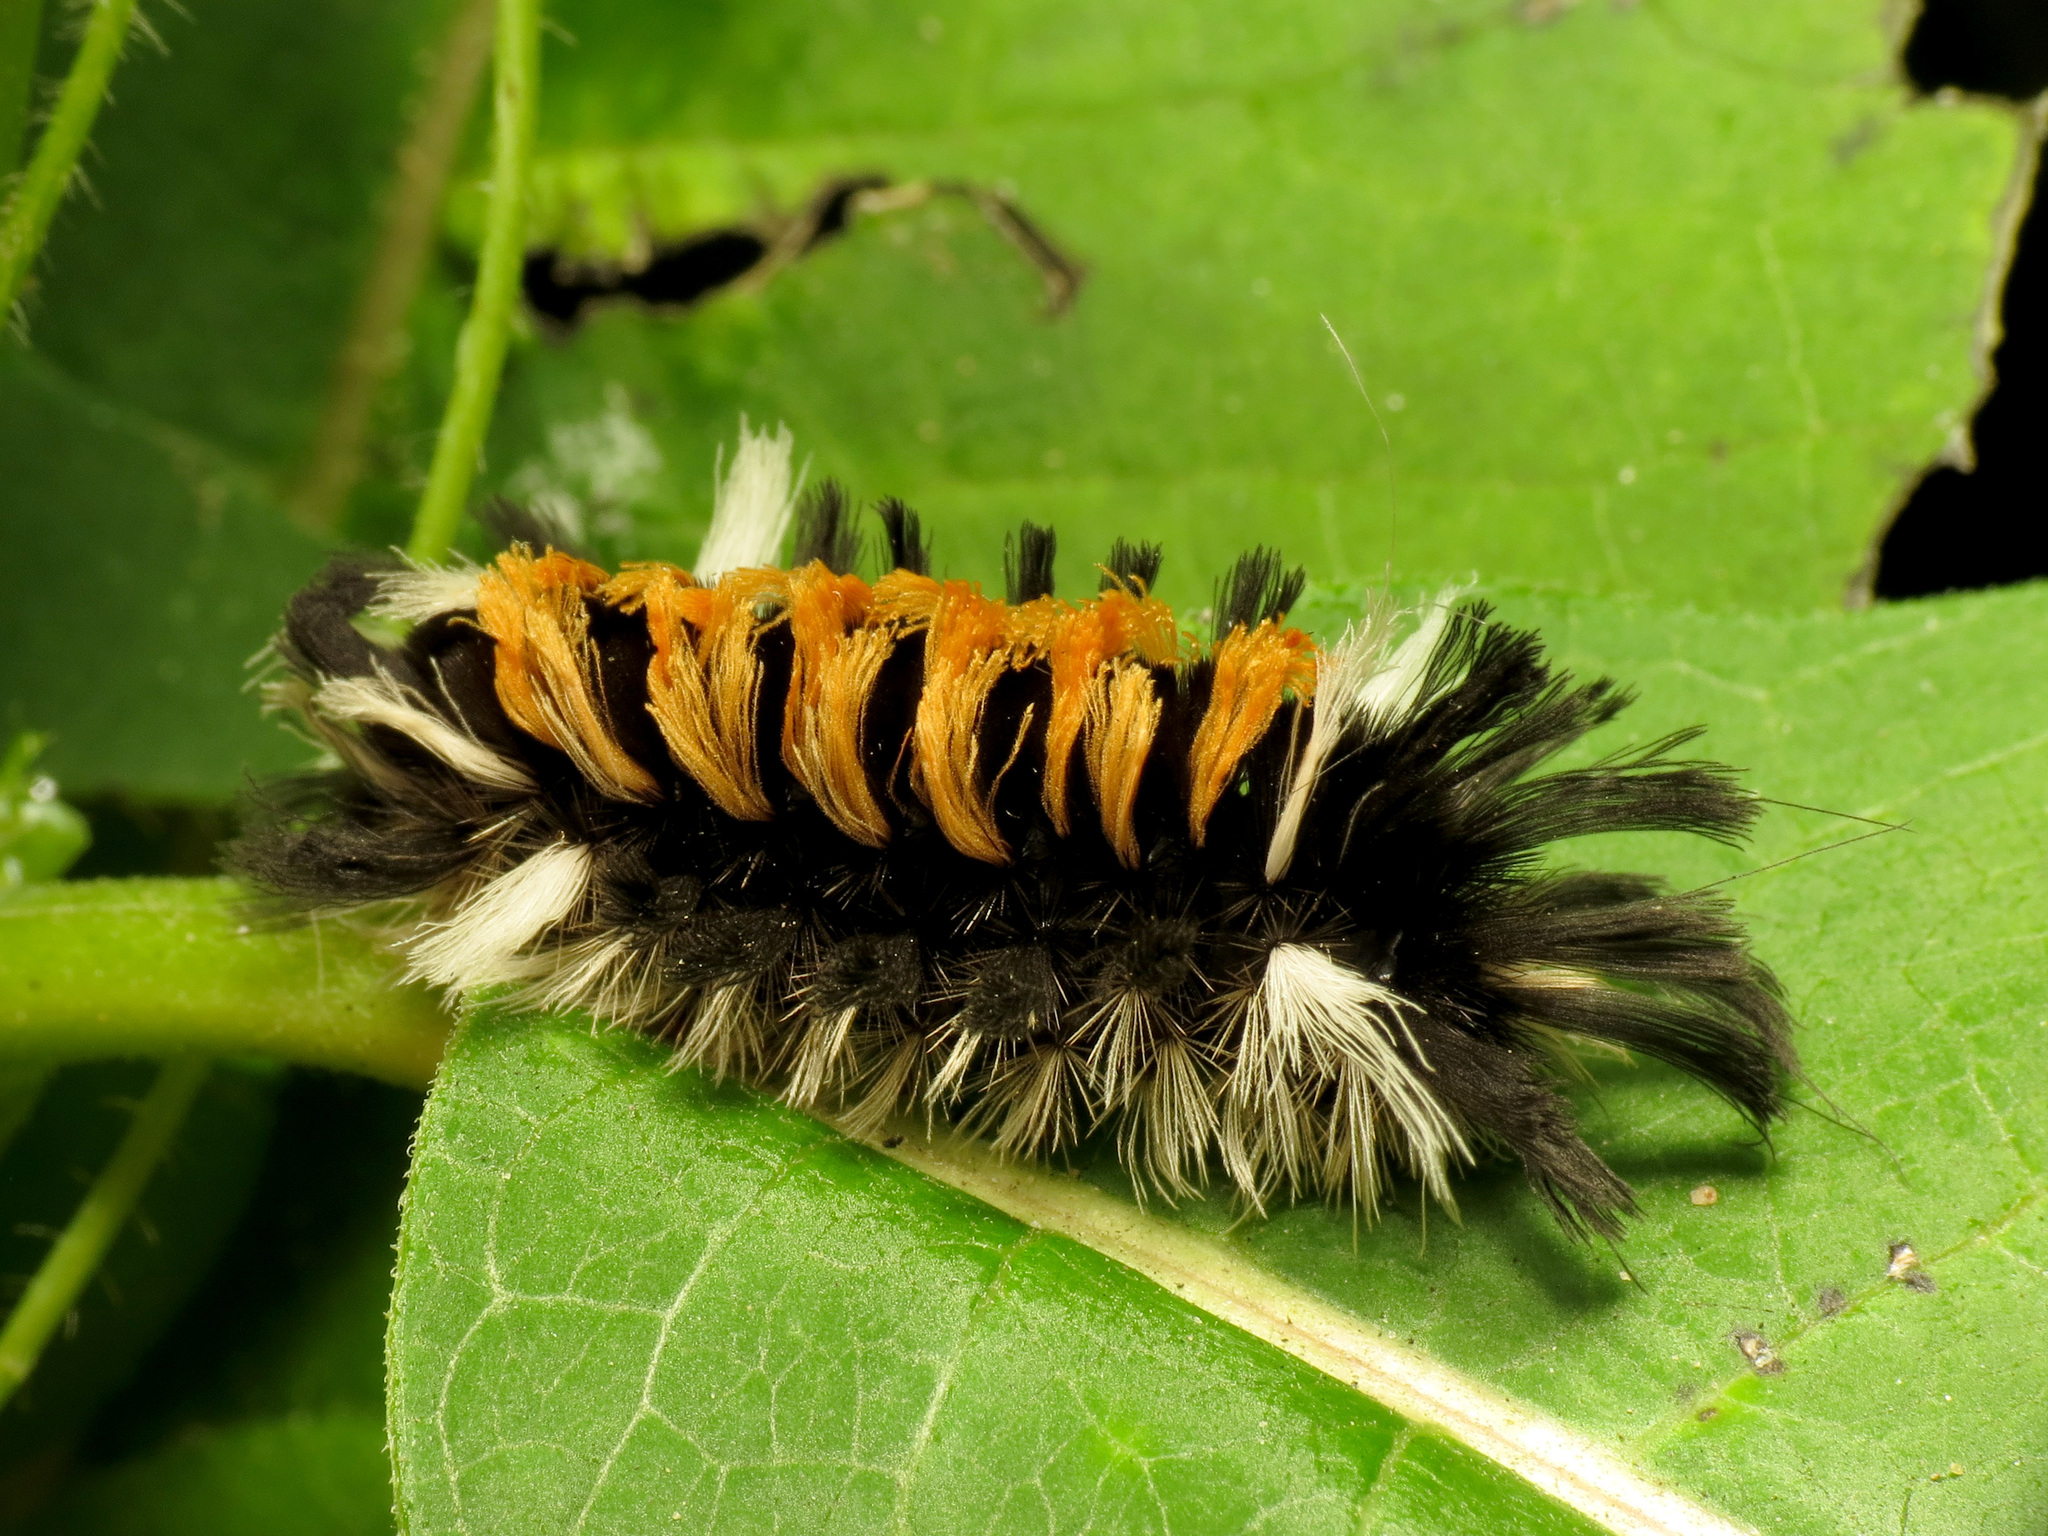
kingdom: Animalia
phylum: Arthropoda
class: Insecta
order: Lepidoptera
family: Erebidae
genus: Euchaetes
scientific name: Euchaetes egle
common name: Milkweed tussock moth
